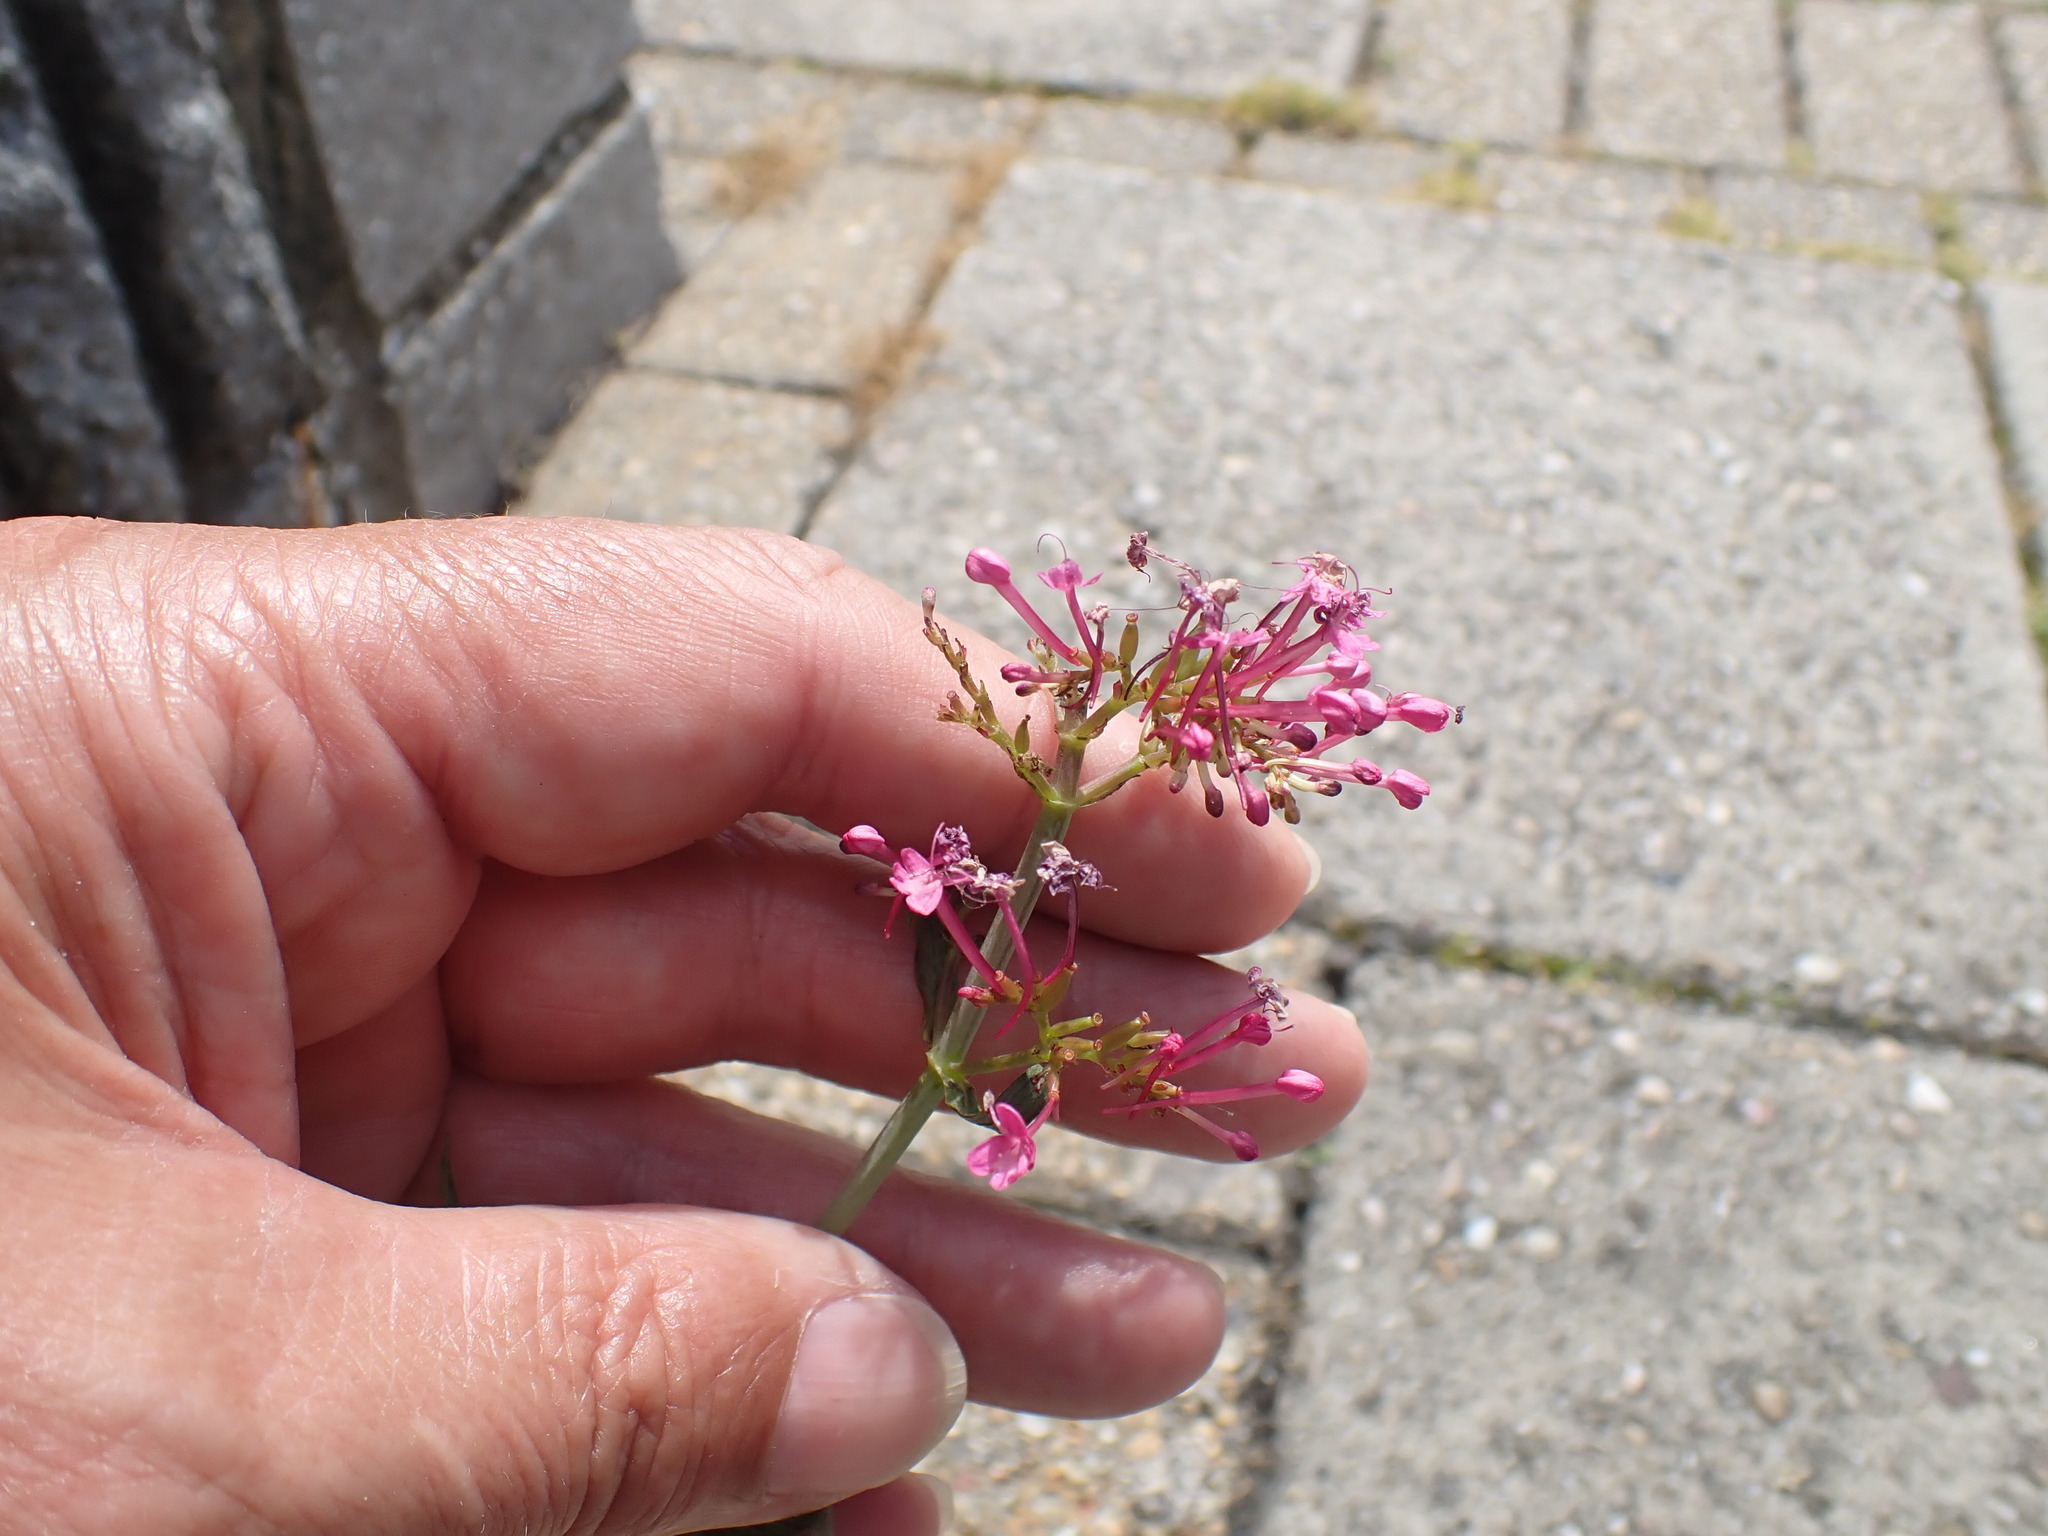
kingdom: Plantae
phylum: Tracheophyta
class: Magnoliopsida
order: Dipsacales
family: Caprifoliaceae
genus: Centranthus
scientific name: Centranthus ruber
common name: Red valerian
